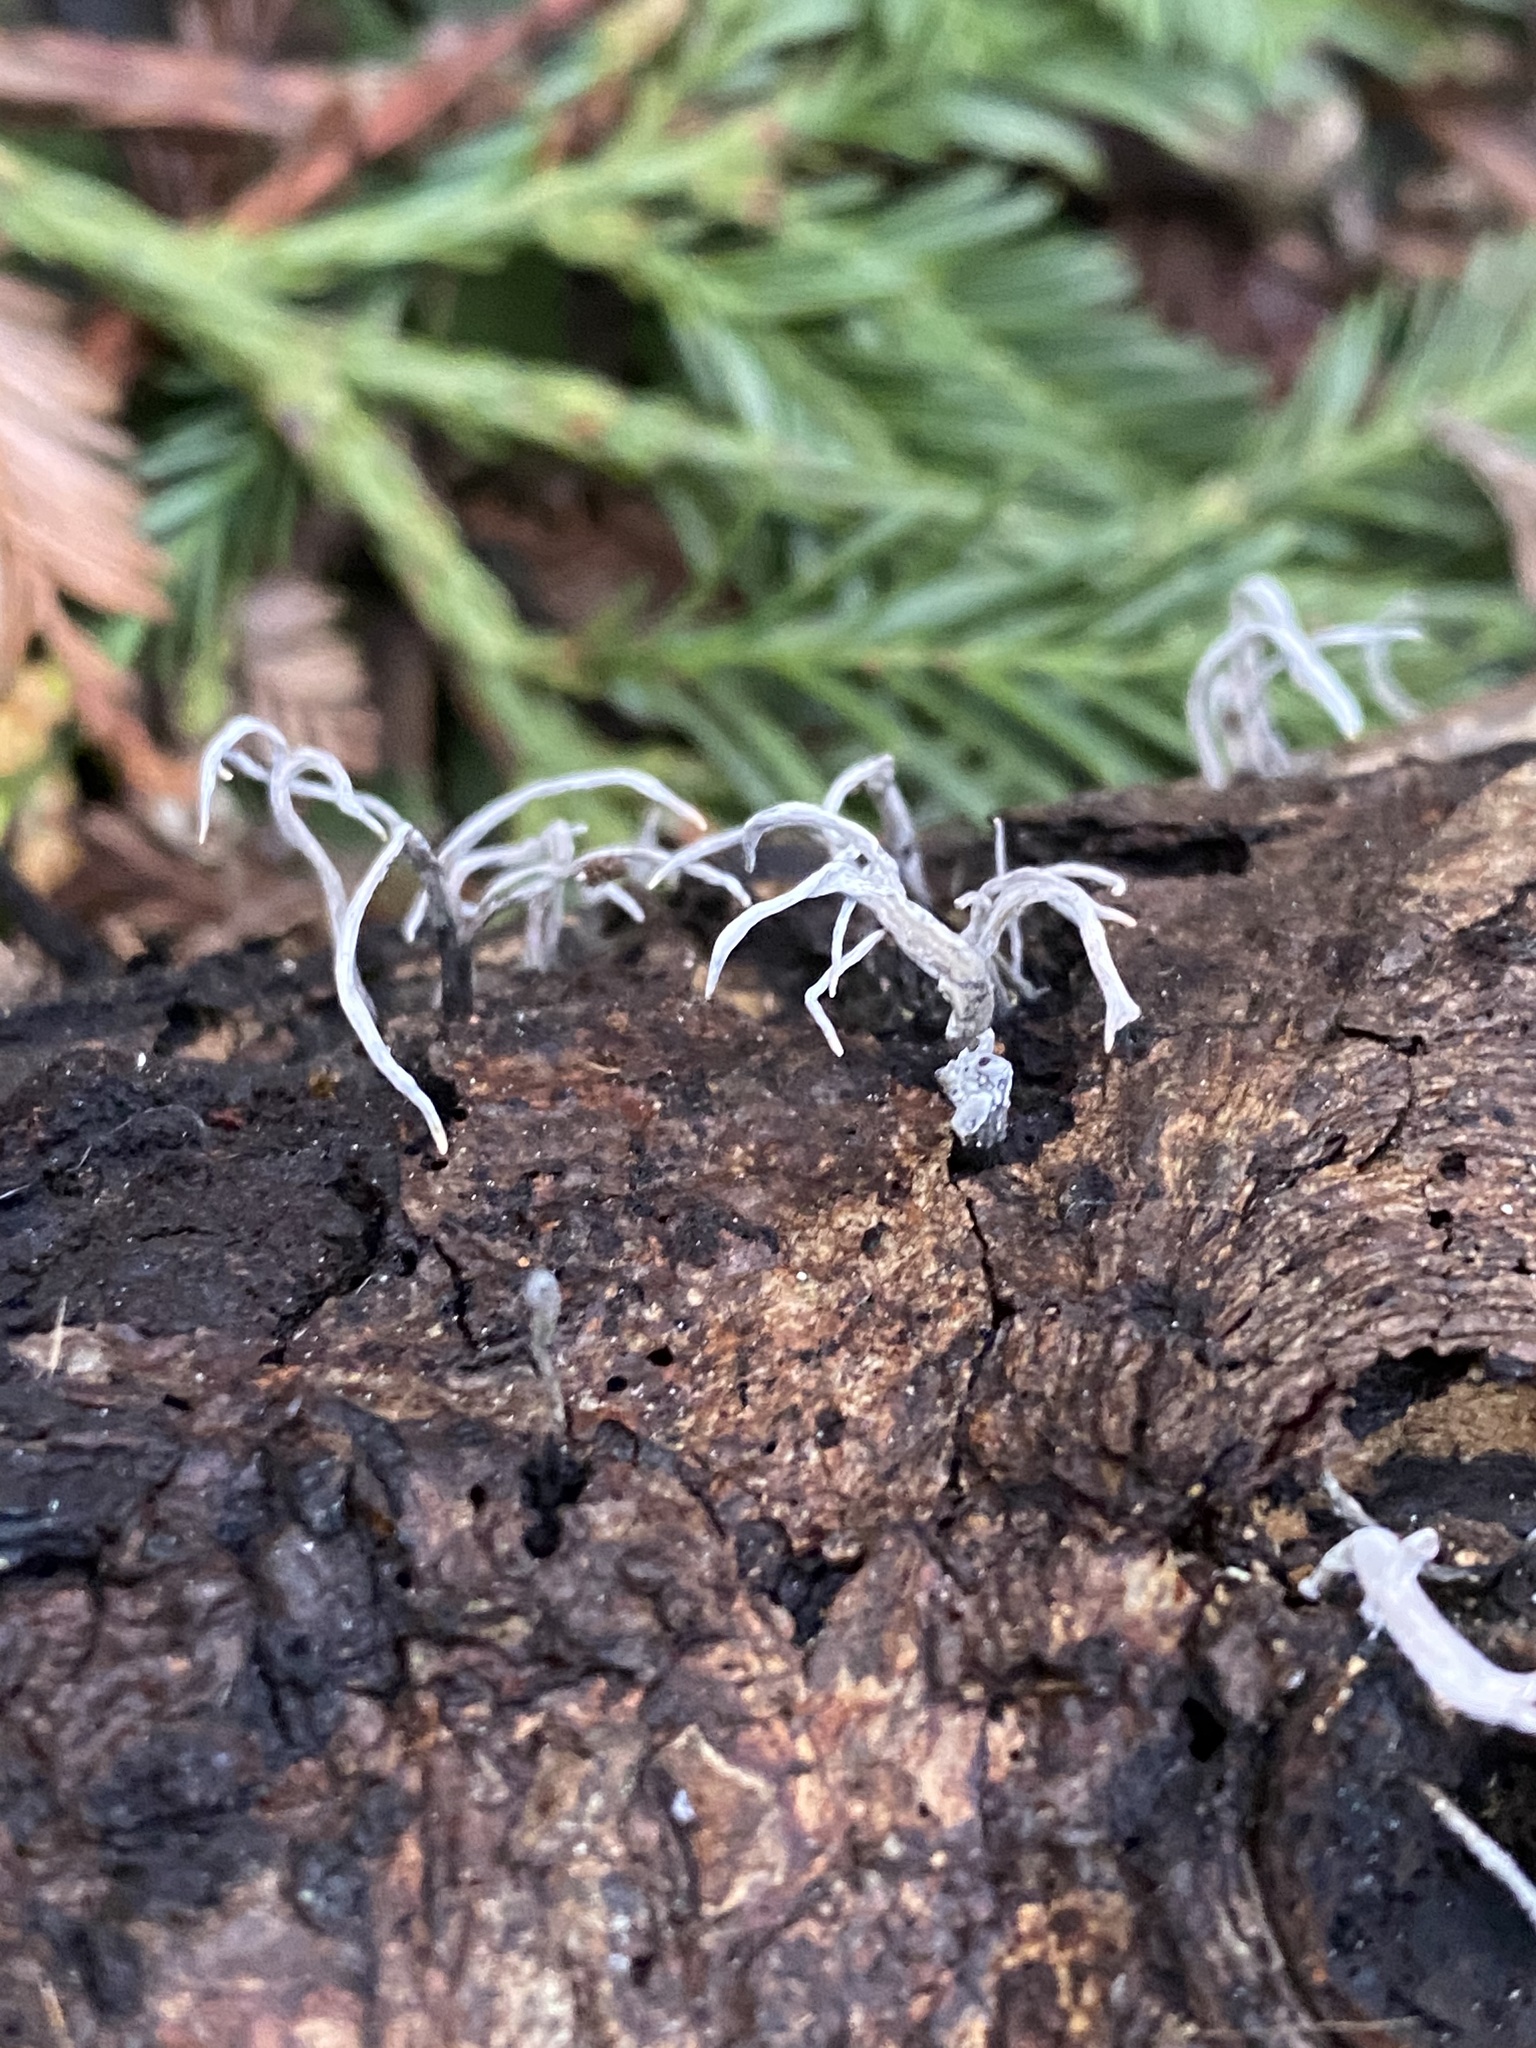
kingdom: Fungi
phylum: Ascomycota
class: Sordariomycetes
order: Xylariales
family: Xylariaceae
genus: Xylaria
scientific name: Xylaria hypoxylon
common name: Candle-snuff fungus
